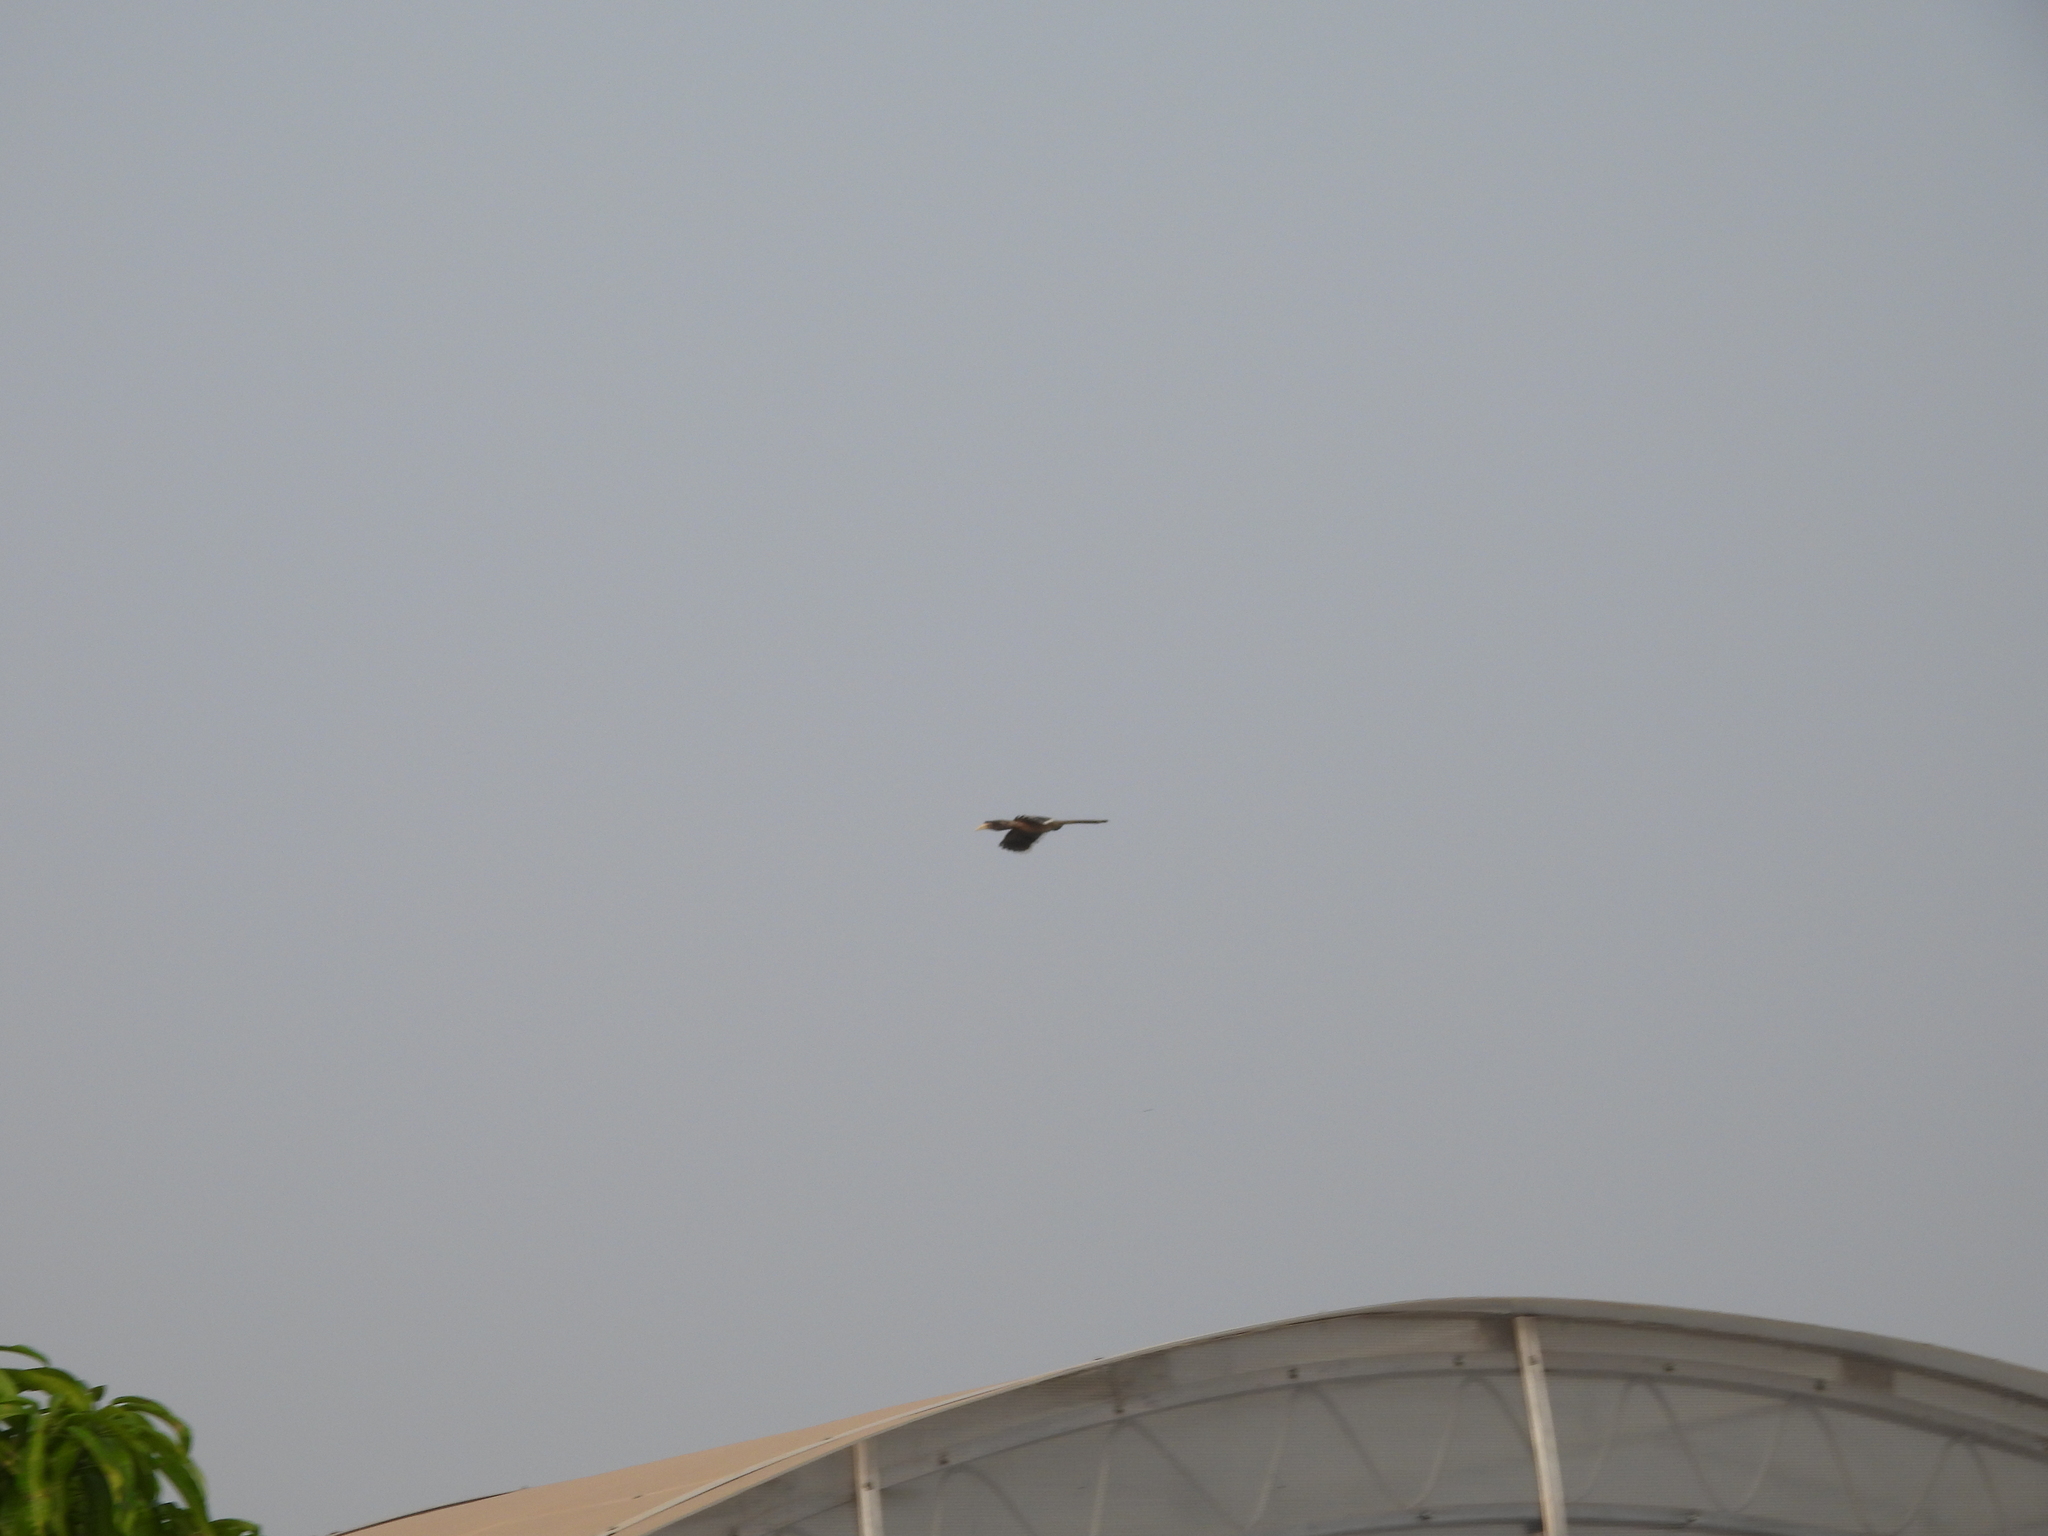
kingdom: Animalia
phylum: Chordata
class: Aves
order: Bucerotiformes
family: Bucerotidae
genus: Ocyceros
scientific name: Ocyceros birostris
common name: Indian grey hornbill
